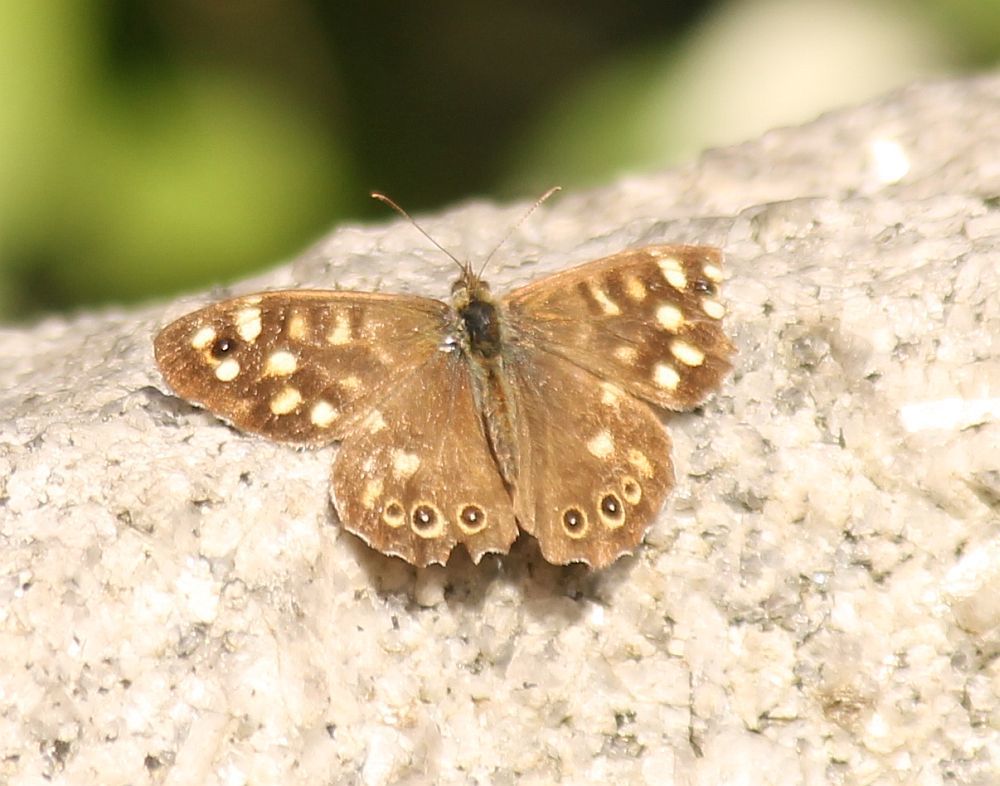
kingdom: Animalia
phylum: Arthropoda
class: Insecta
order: Lepidoptera
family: Nymphalidae
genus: Pararge
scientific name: Pararge aegeria
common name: Speckled wood
